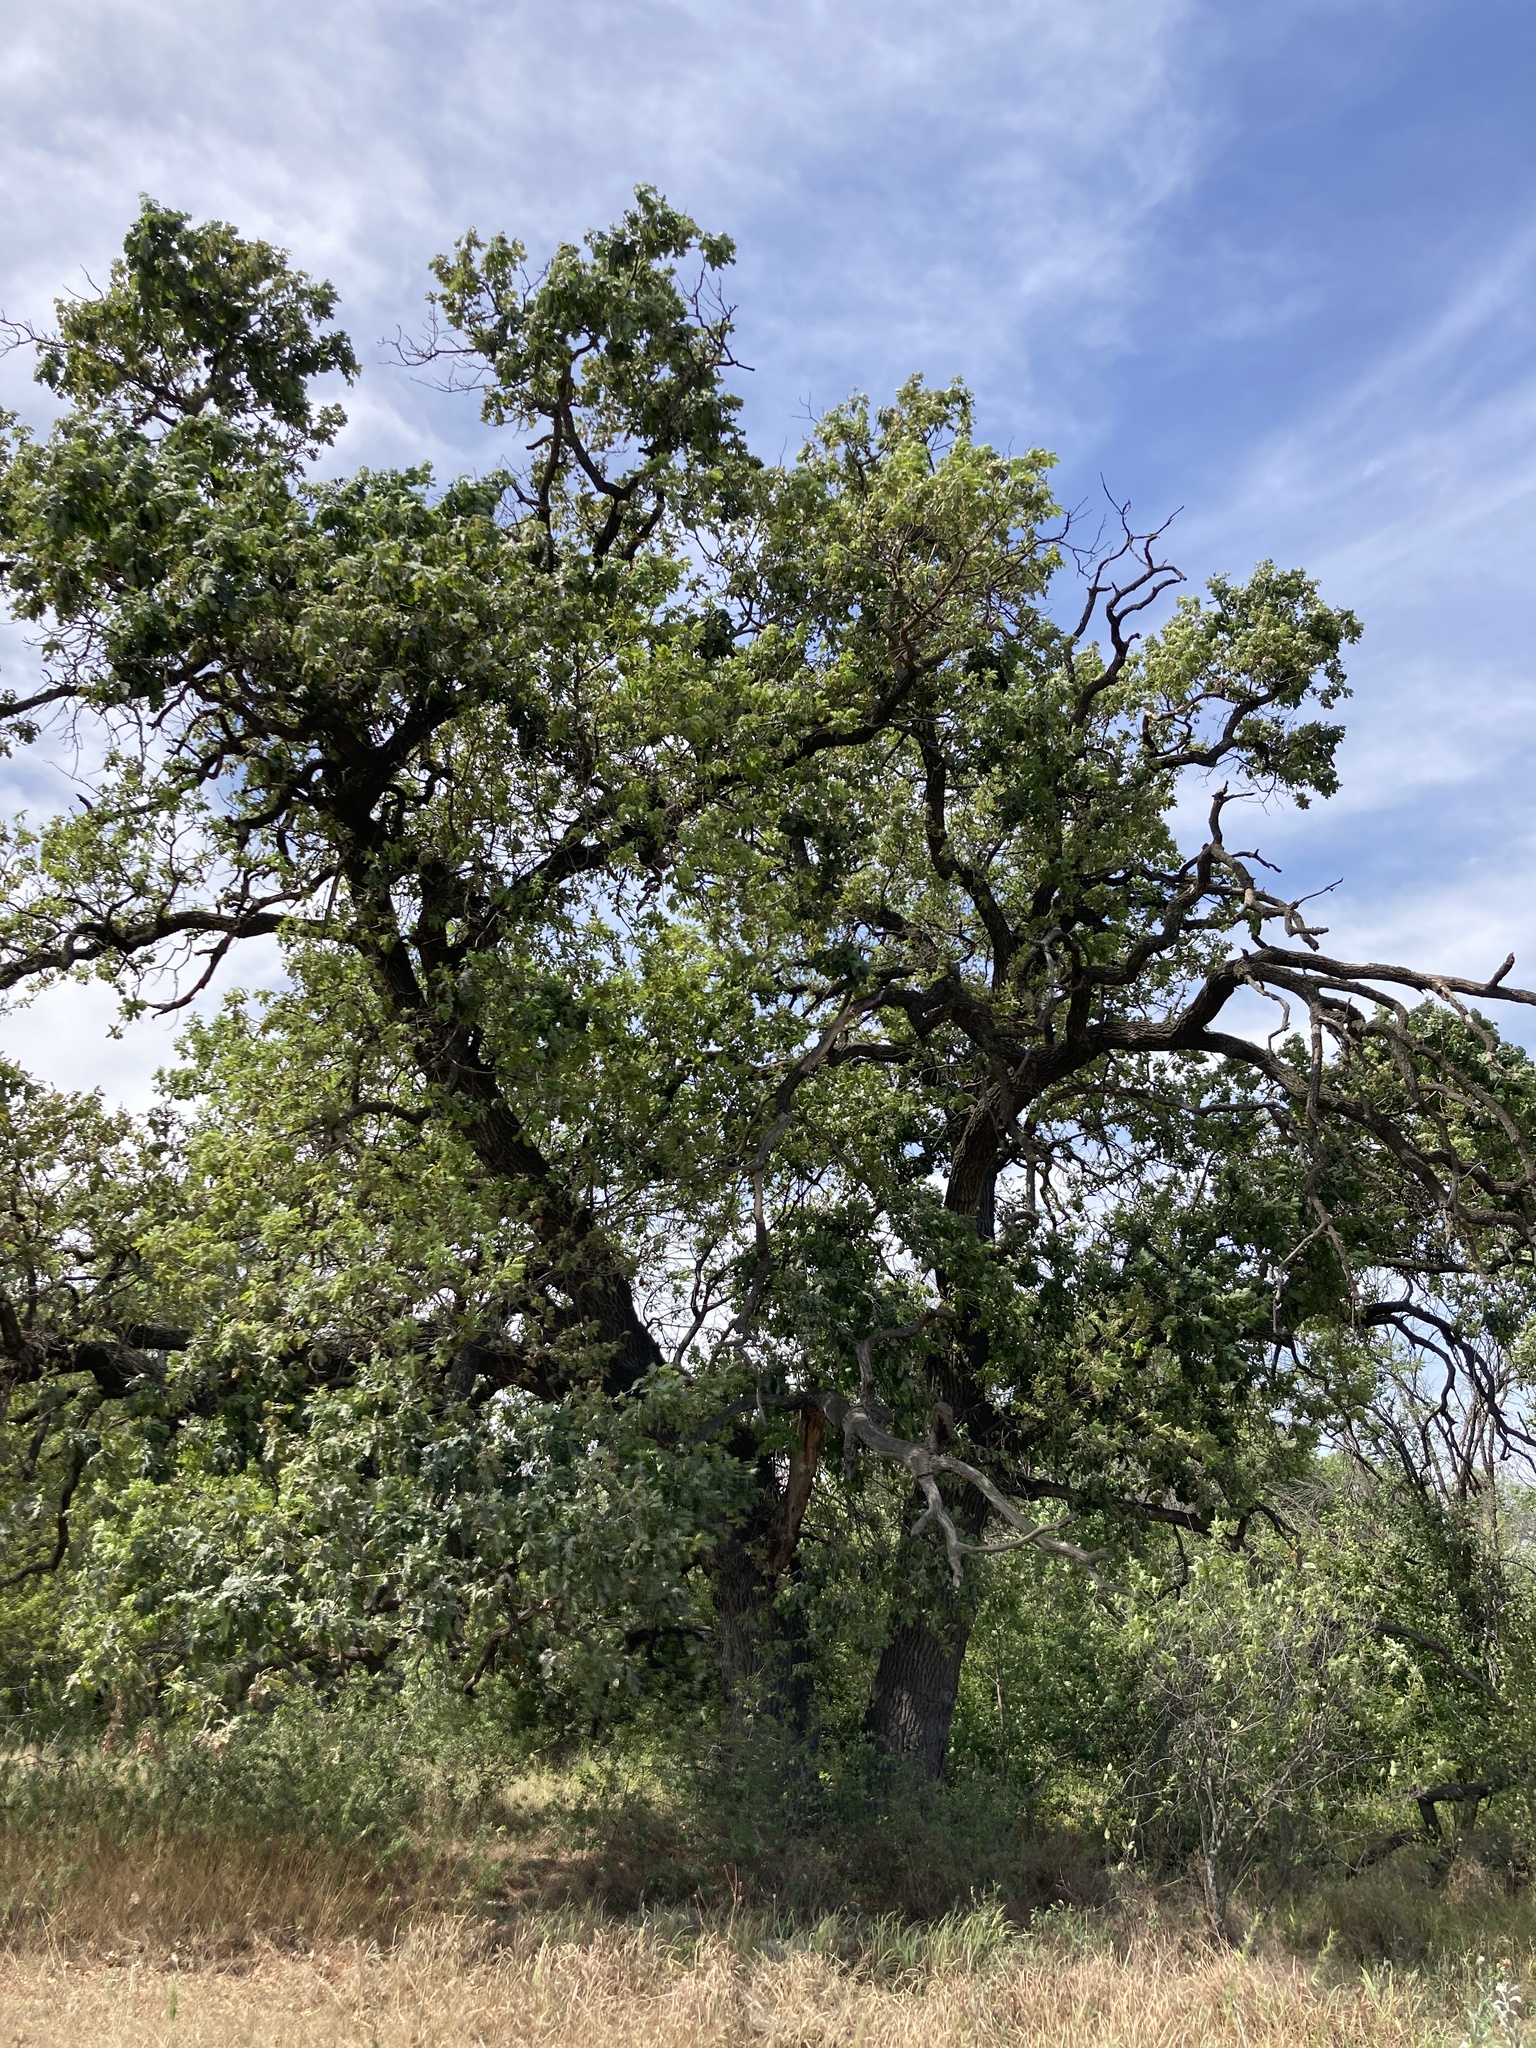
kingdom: Plantae
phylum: Tracheophyta
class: Magnoliopsida
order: Fagales
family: Fagaceae
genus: Quercus
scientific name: Quercus robur
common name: Pedunculate oak
